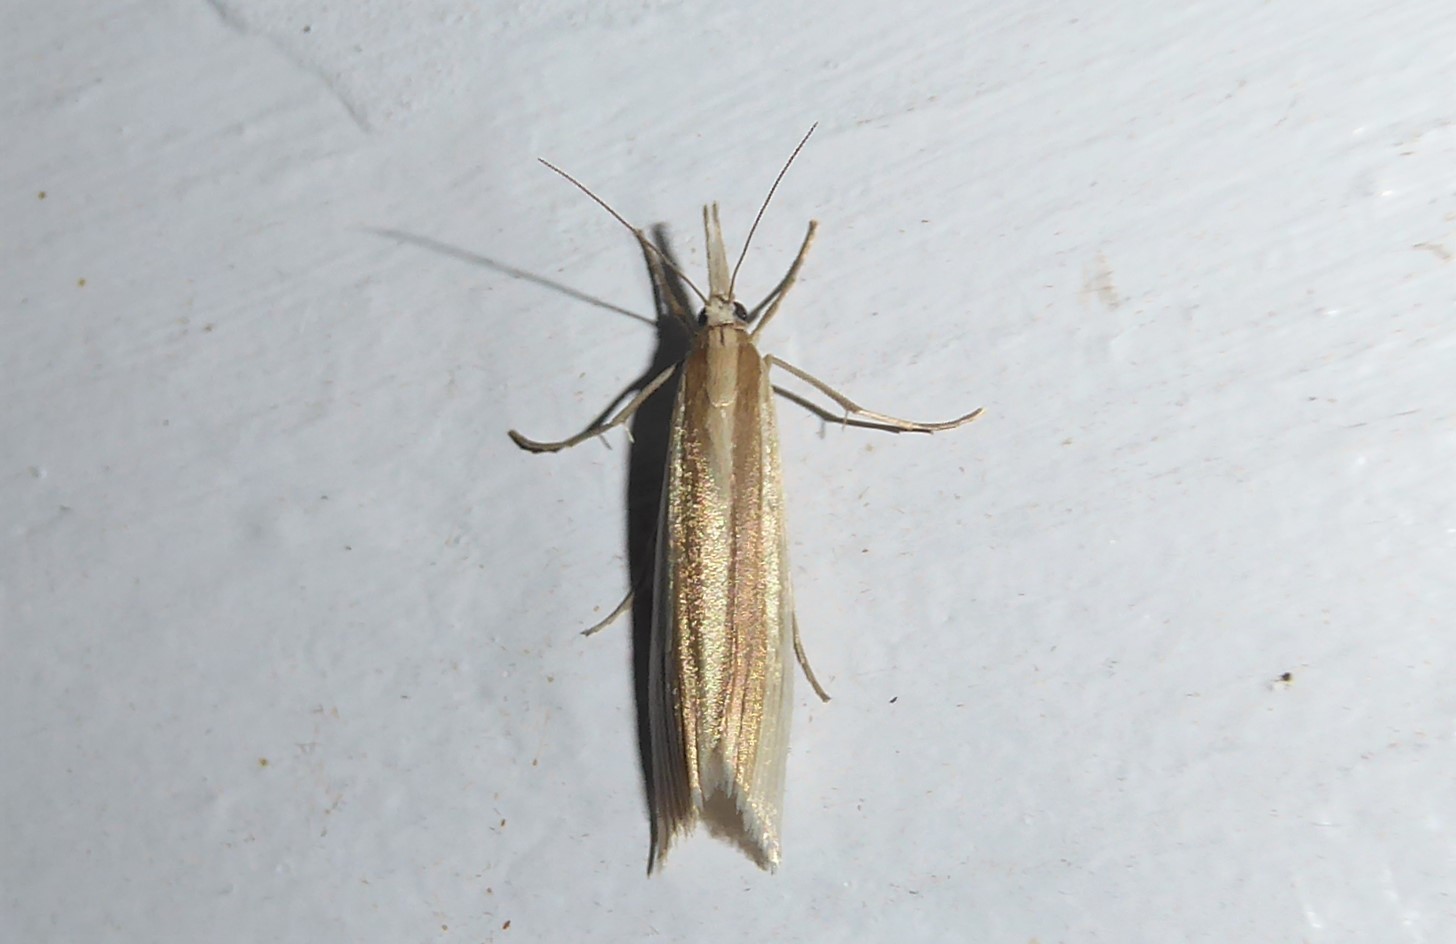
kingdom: Animalia
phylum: Arthropoda
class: Insecta
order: Lepidoptera
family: Crambidae
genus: Orocrambus
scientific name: Orocrambus angustipennis
